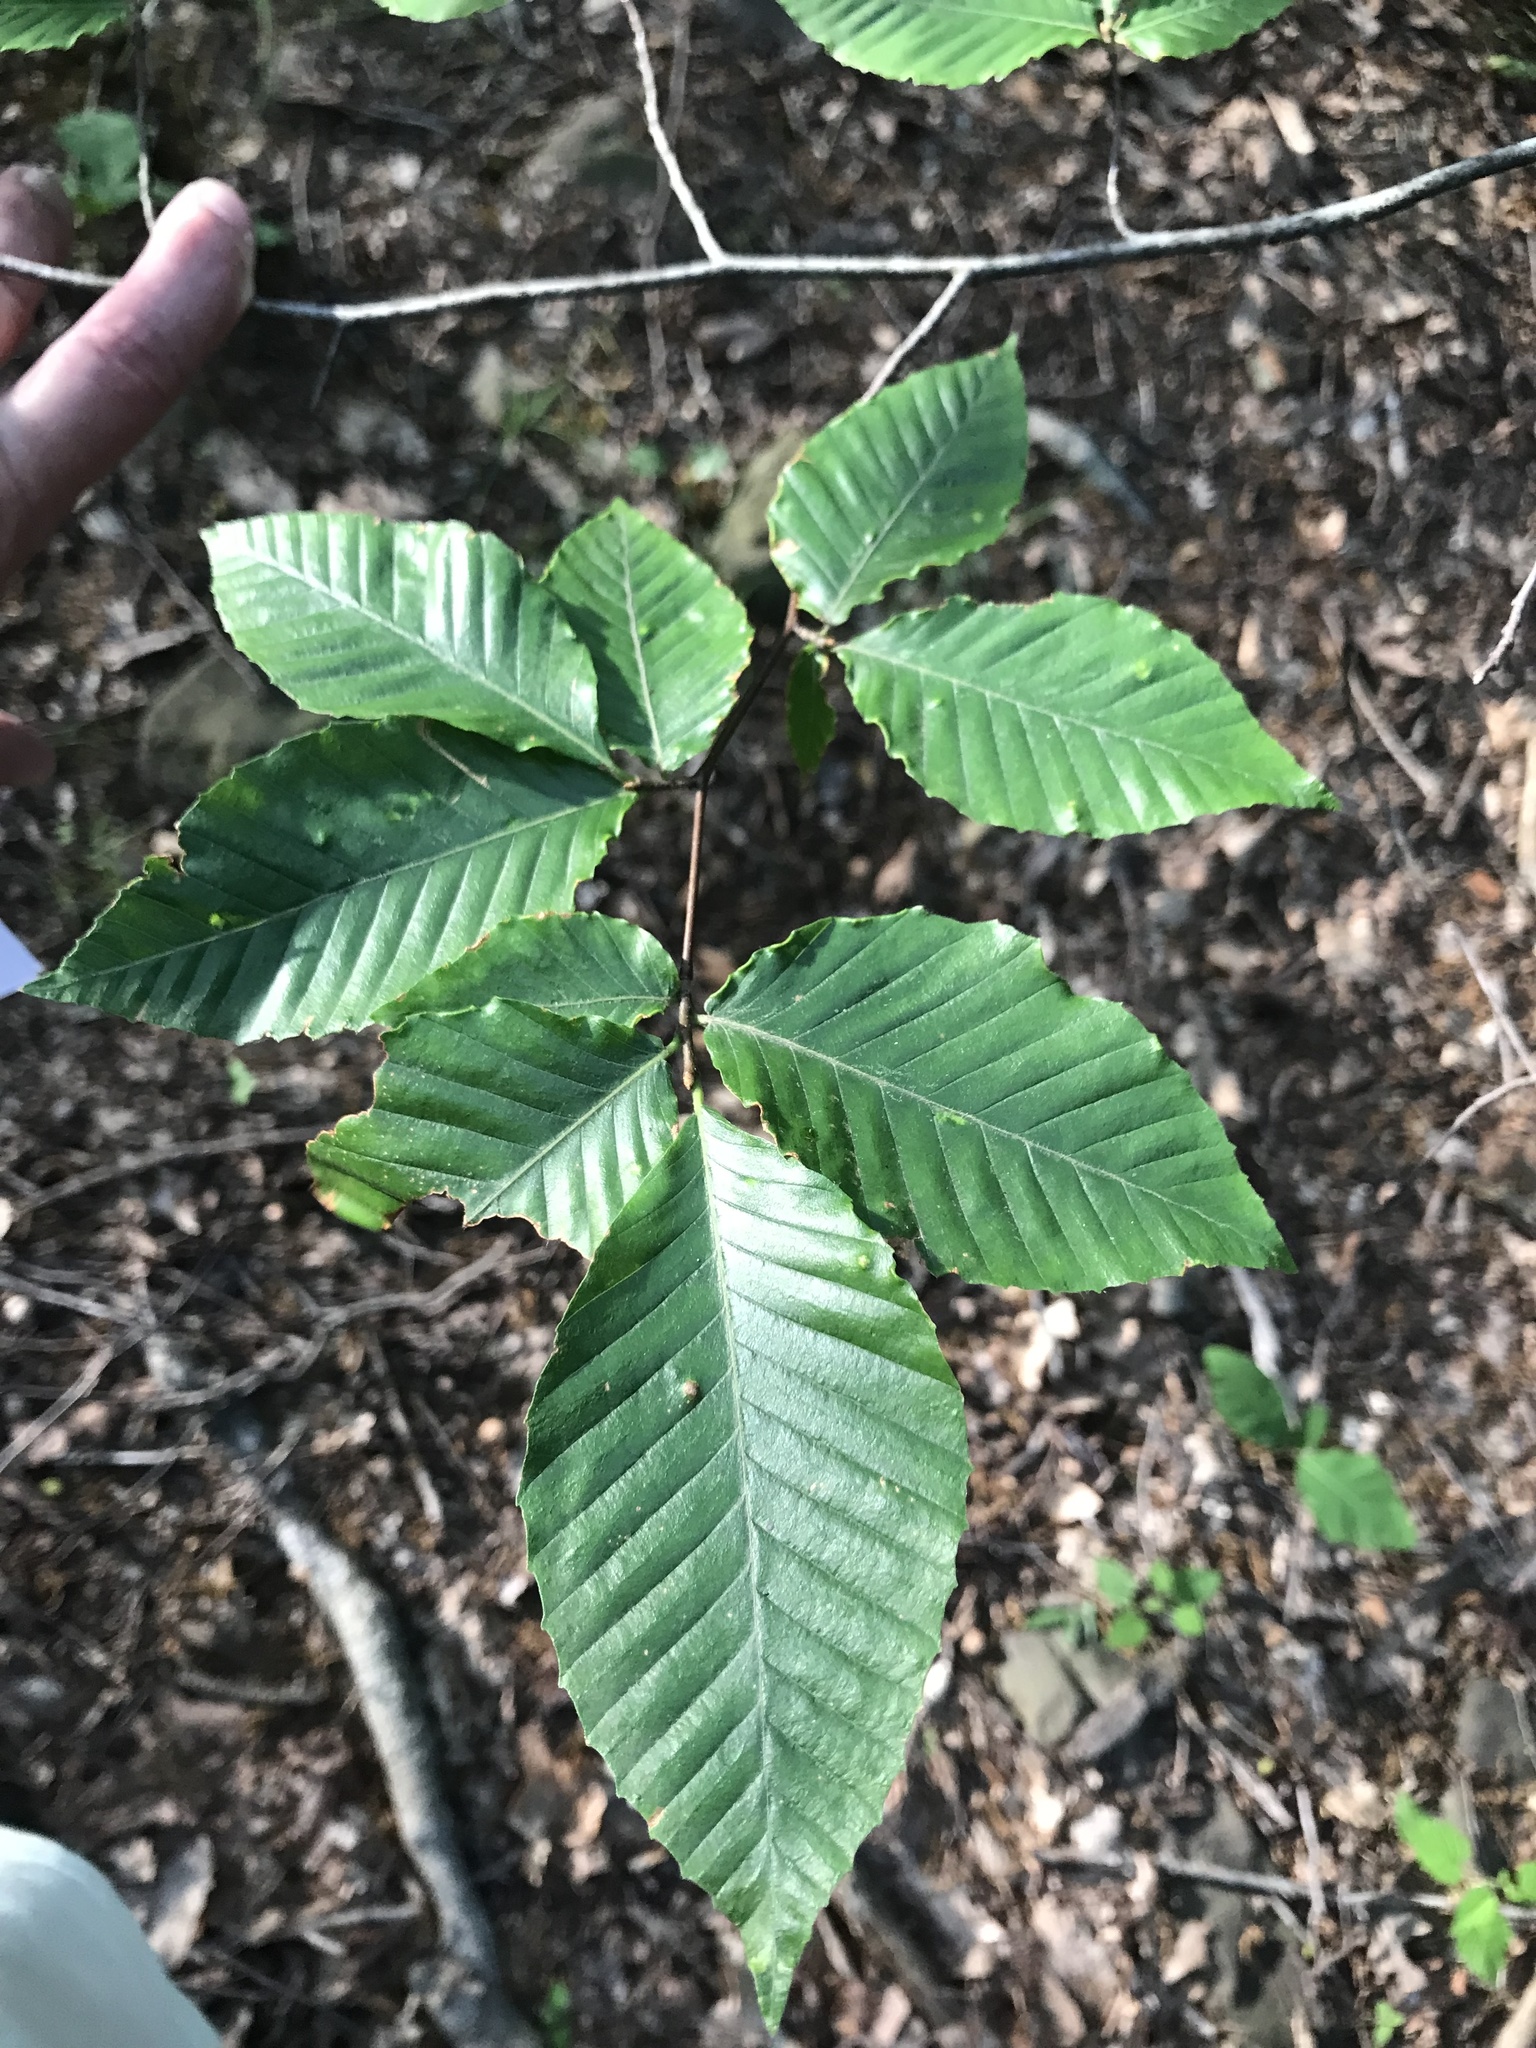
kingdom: Plantae
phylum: Tracheophyta
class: Magnoliopsida
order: Fagales
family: Fagaceae
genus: Fagus
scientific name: Fagus grandifolia
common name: American beech
